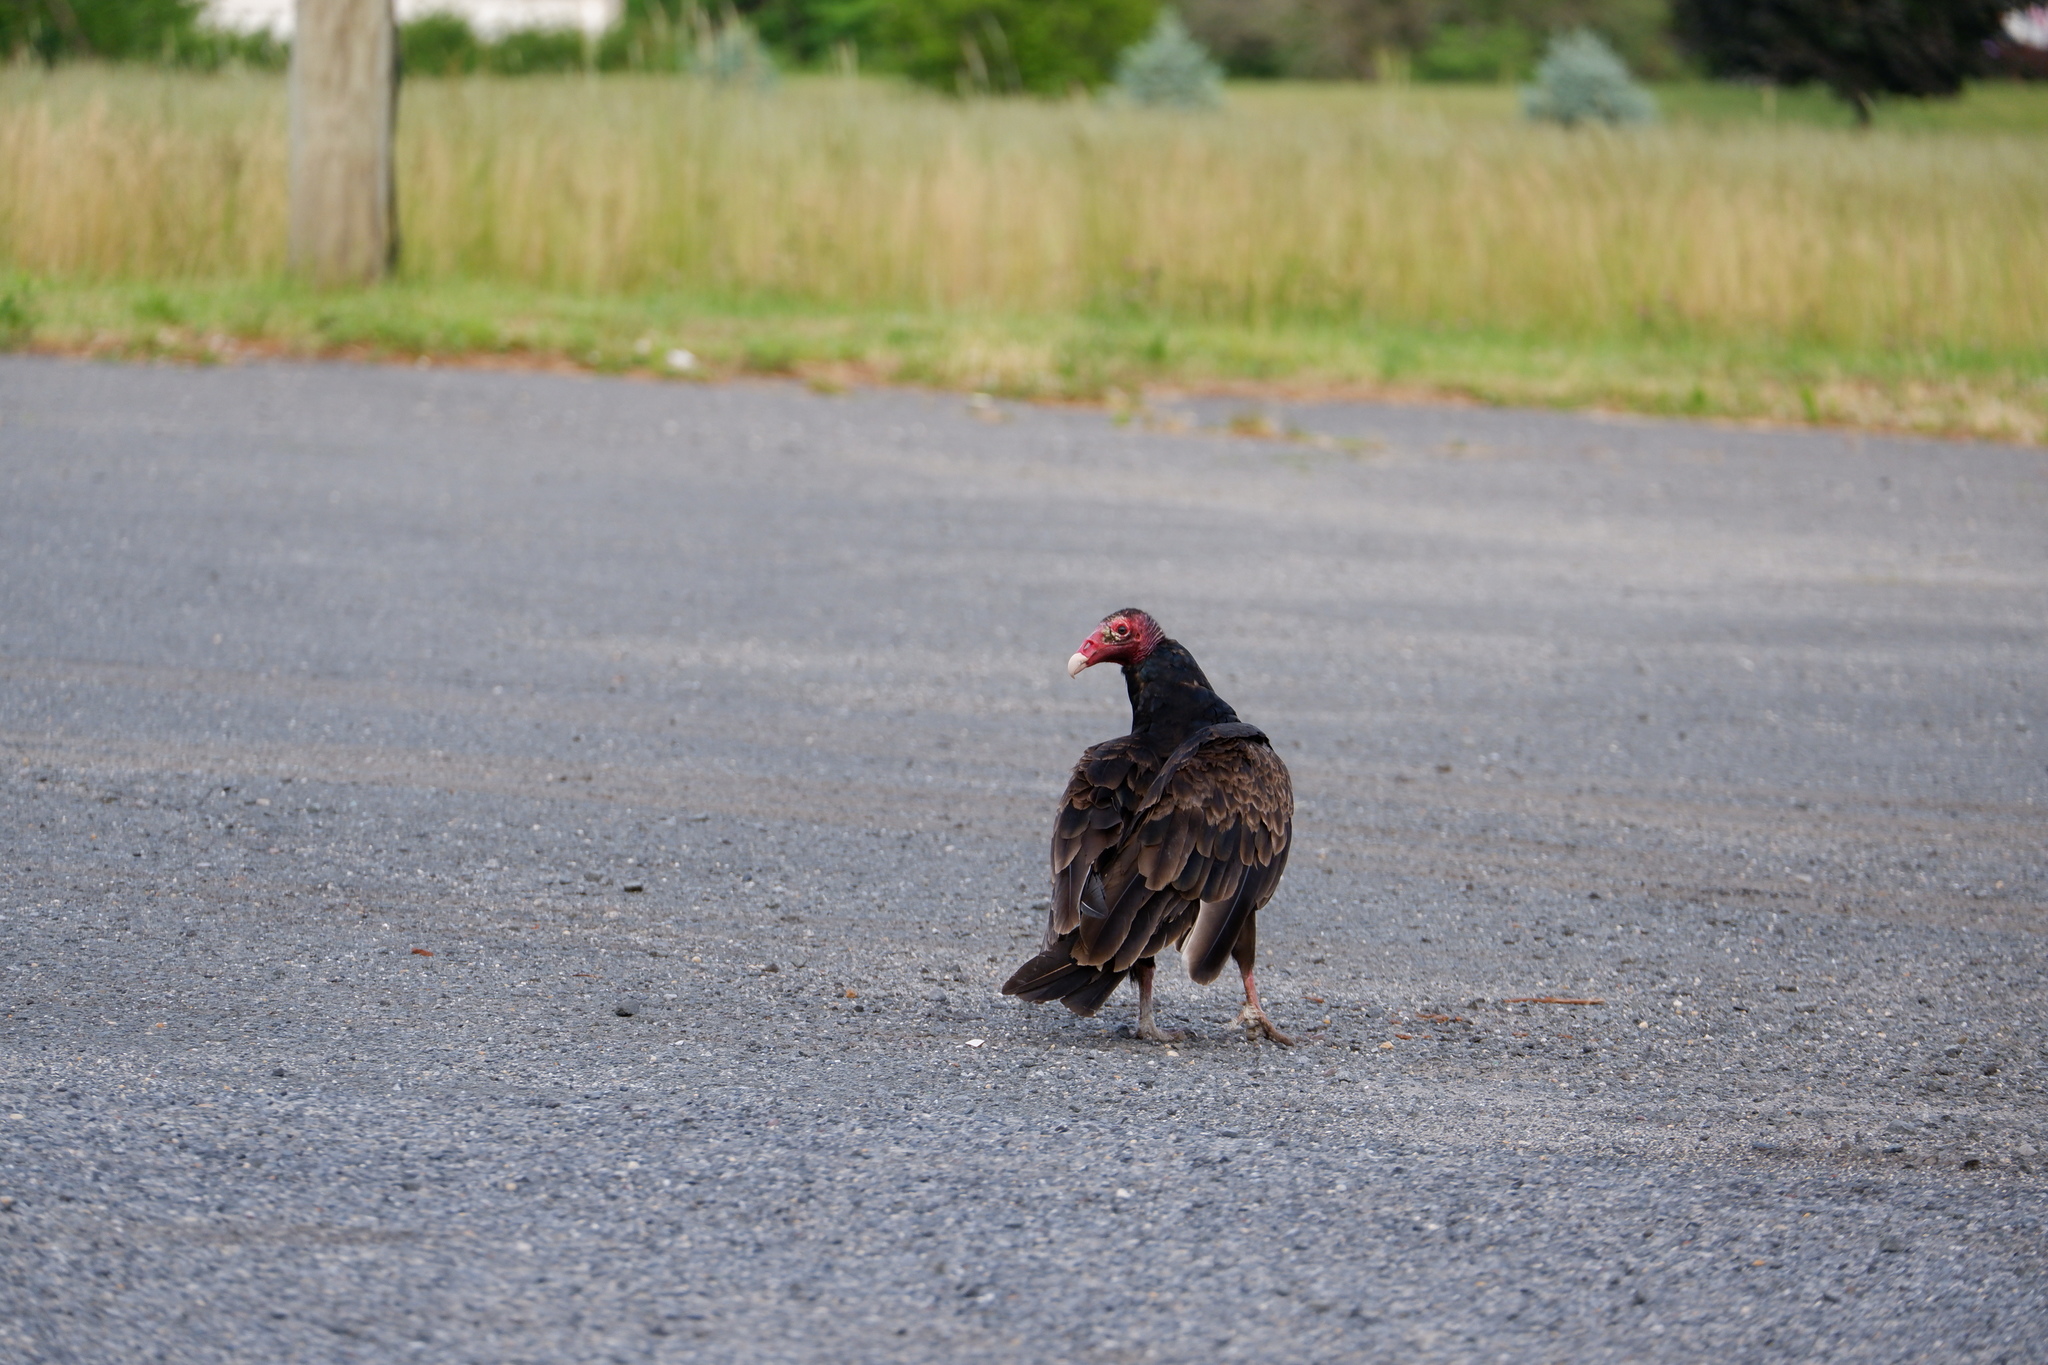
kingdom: Animalia
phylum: Chordata
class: Aves
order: Accipitriformes
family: Cathartidae
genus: Cathartes
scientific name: Cathartes aura
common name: Turkey vulture
